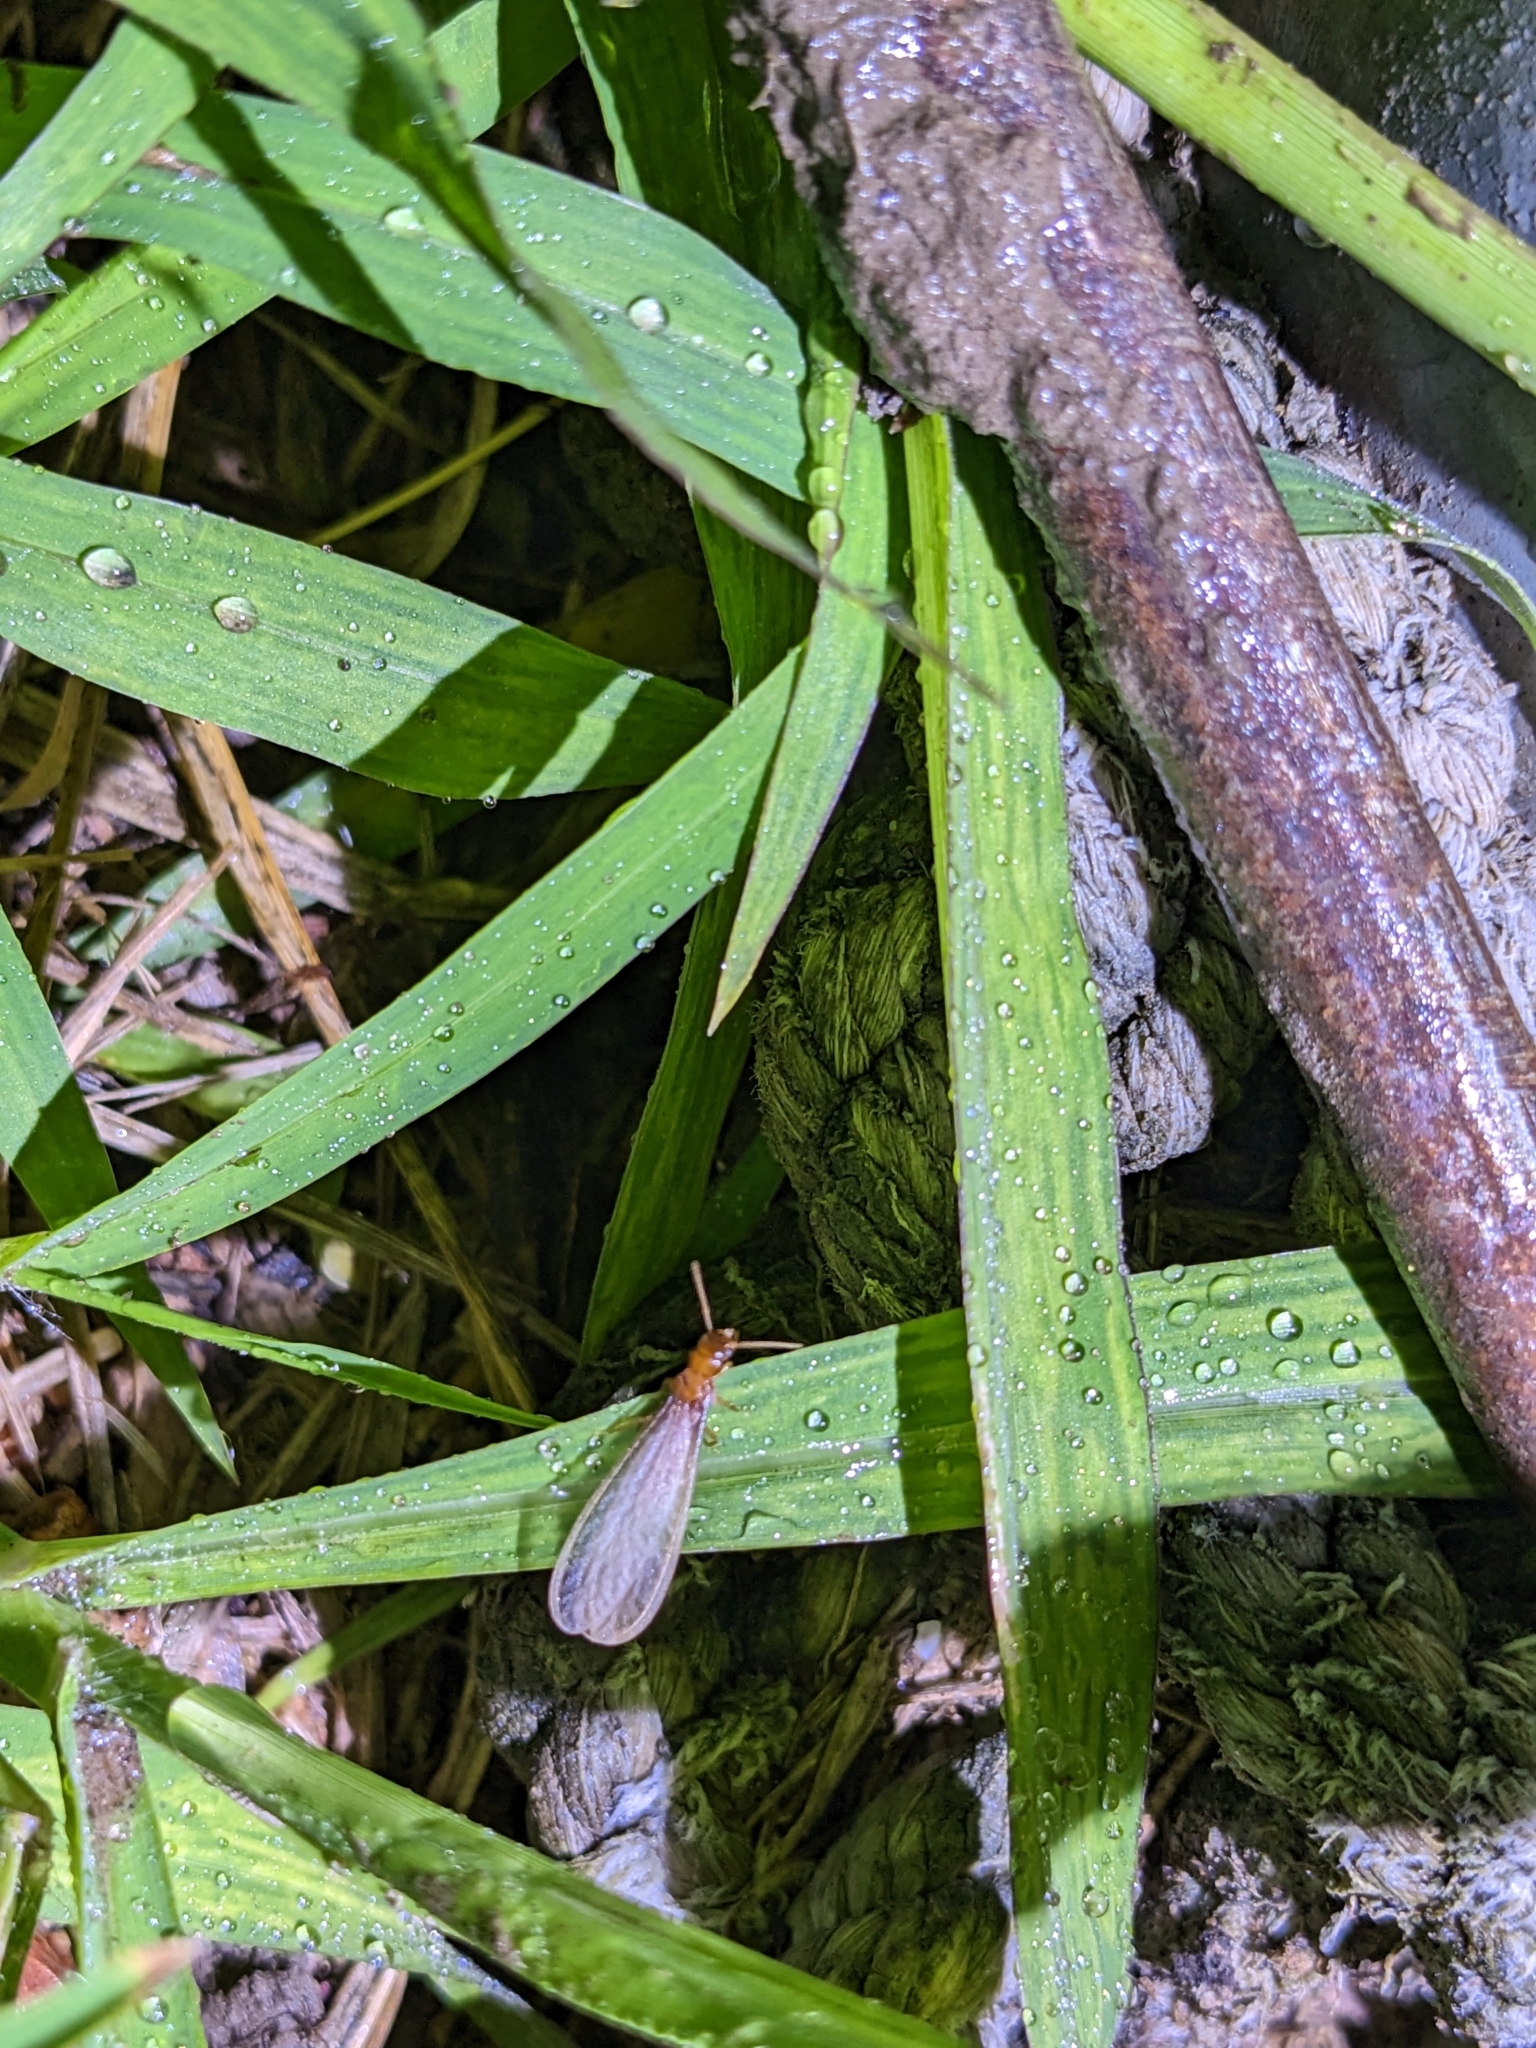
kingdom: Animalia
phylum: Arthropoda
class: Insecta
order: Blattodea
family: Rhinotermitidae
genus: Coptotermes
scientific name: Coptotermes formosanus
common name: Formosan termite
